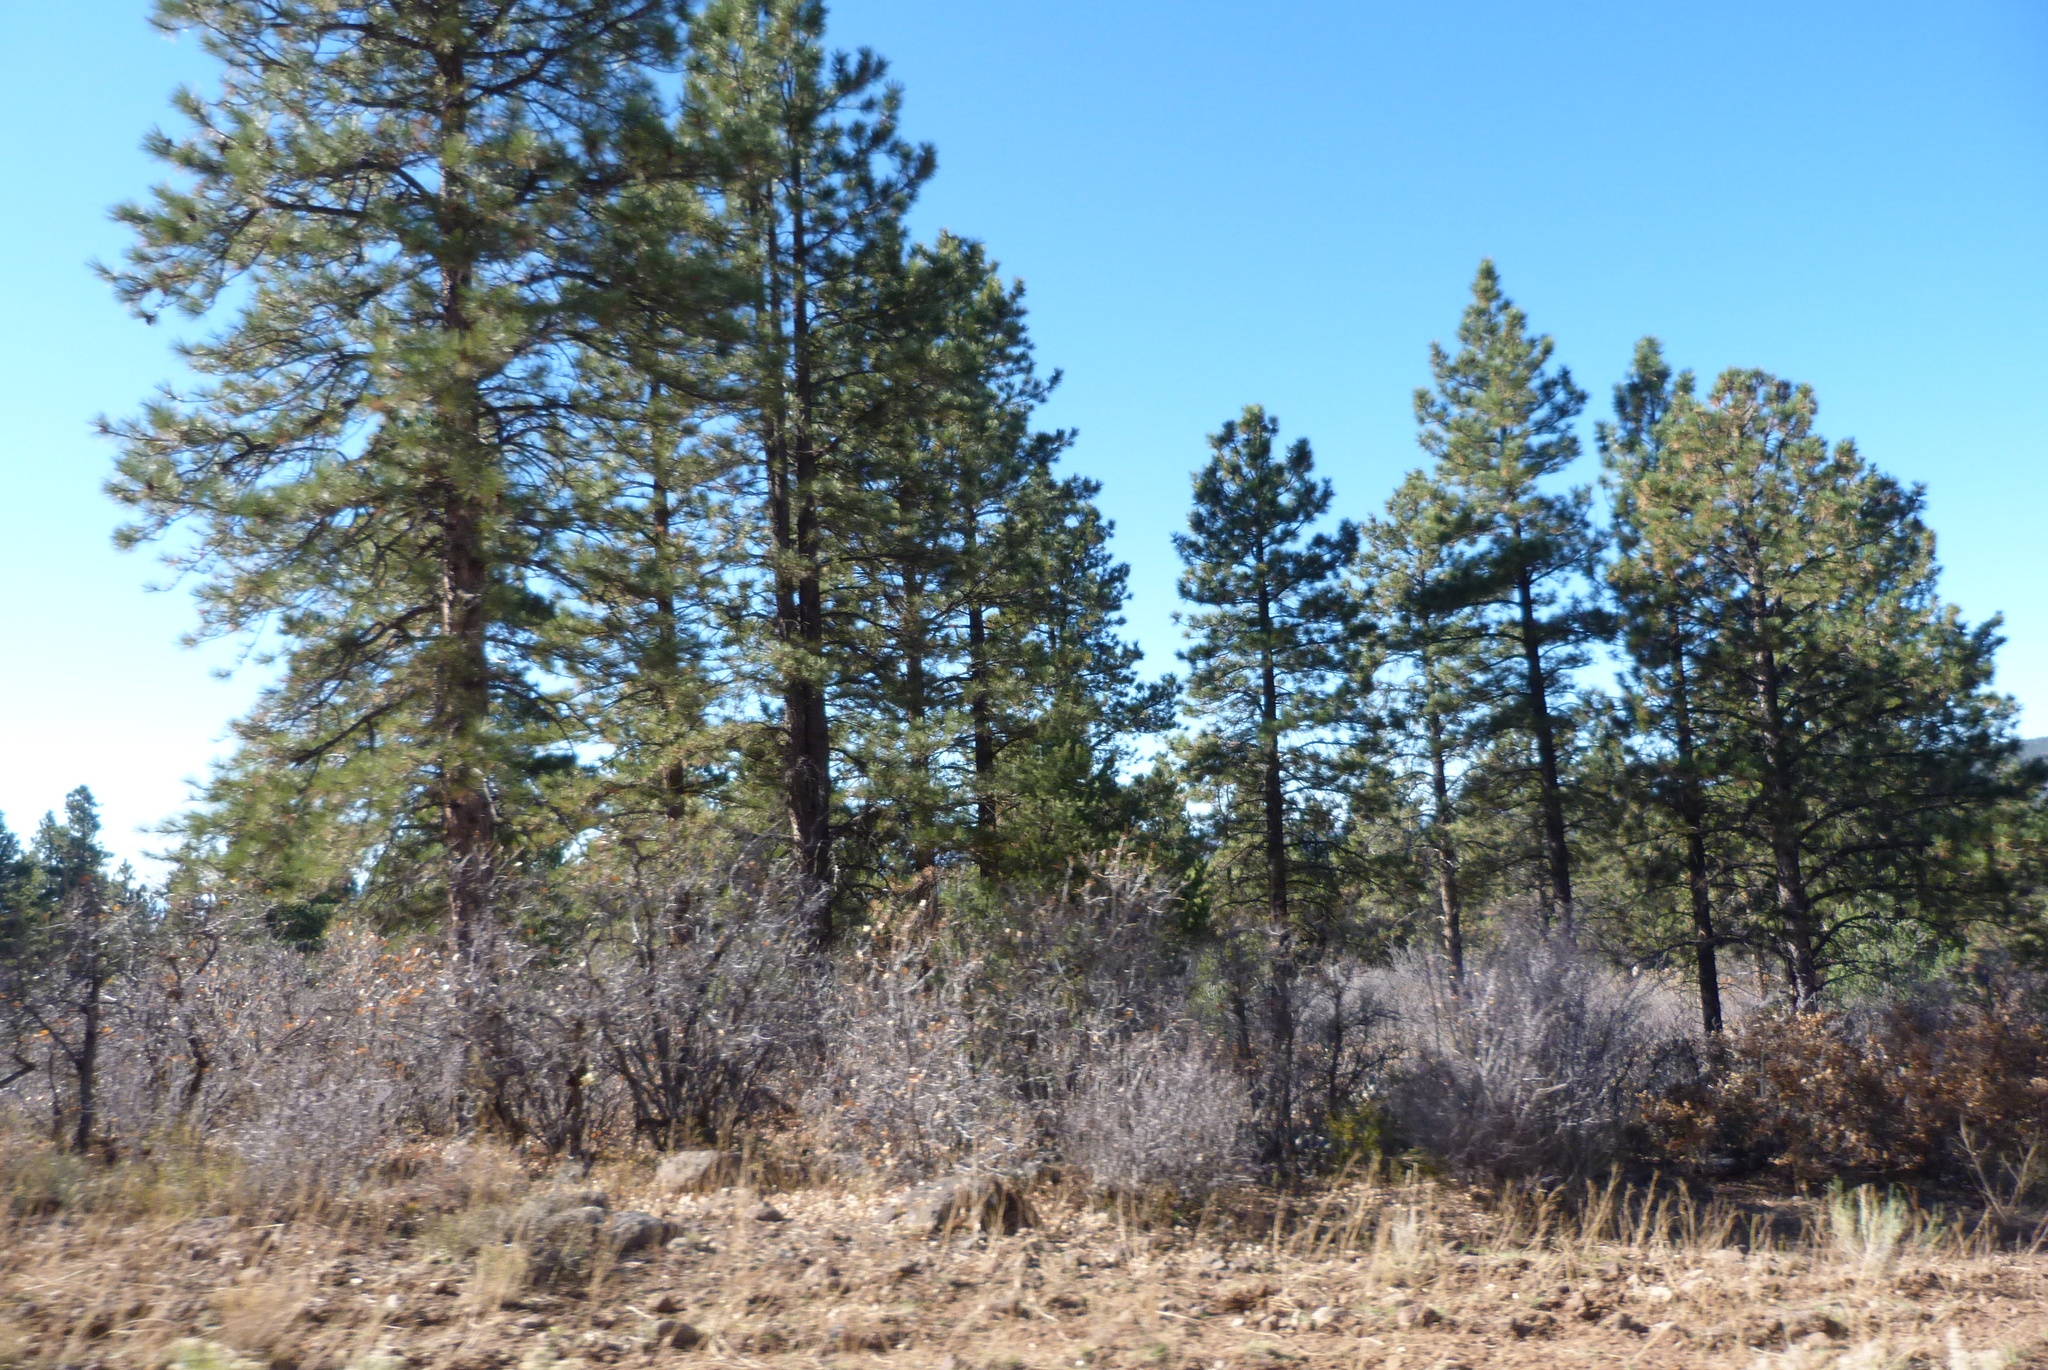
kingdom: Plantae
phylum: Tracheophyta
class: Pinopsida
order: Pinales
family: Pinaceae
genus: Pinus
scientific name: Pinus ponderosa
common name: Western yellow-pine
